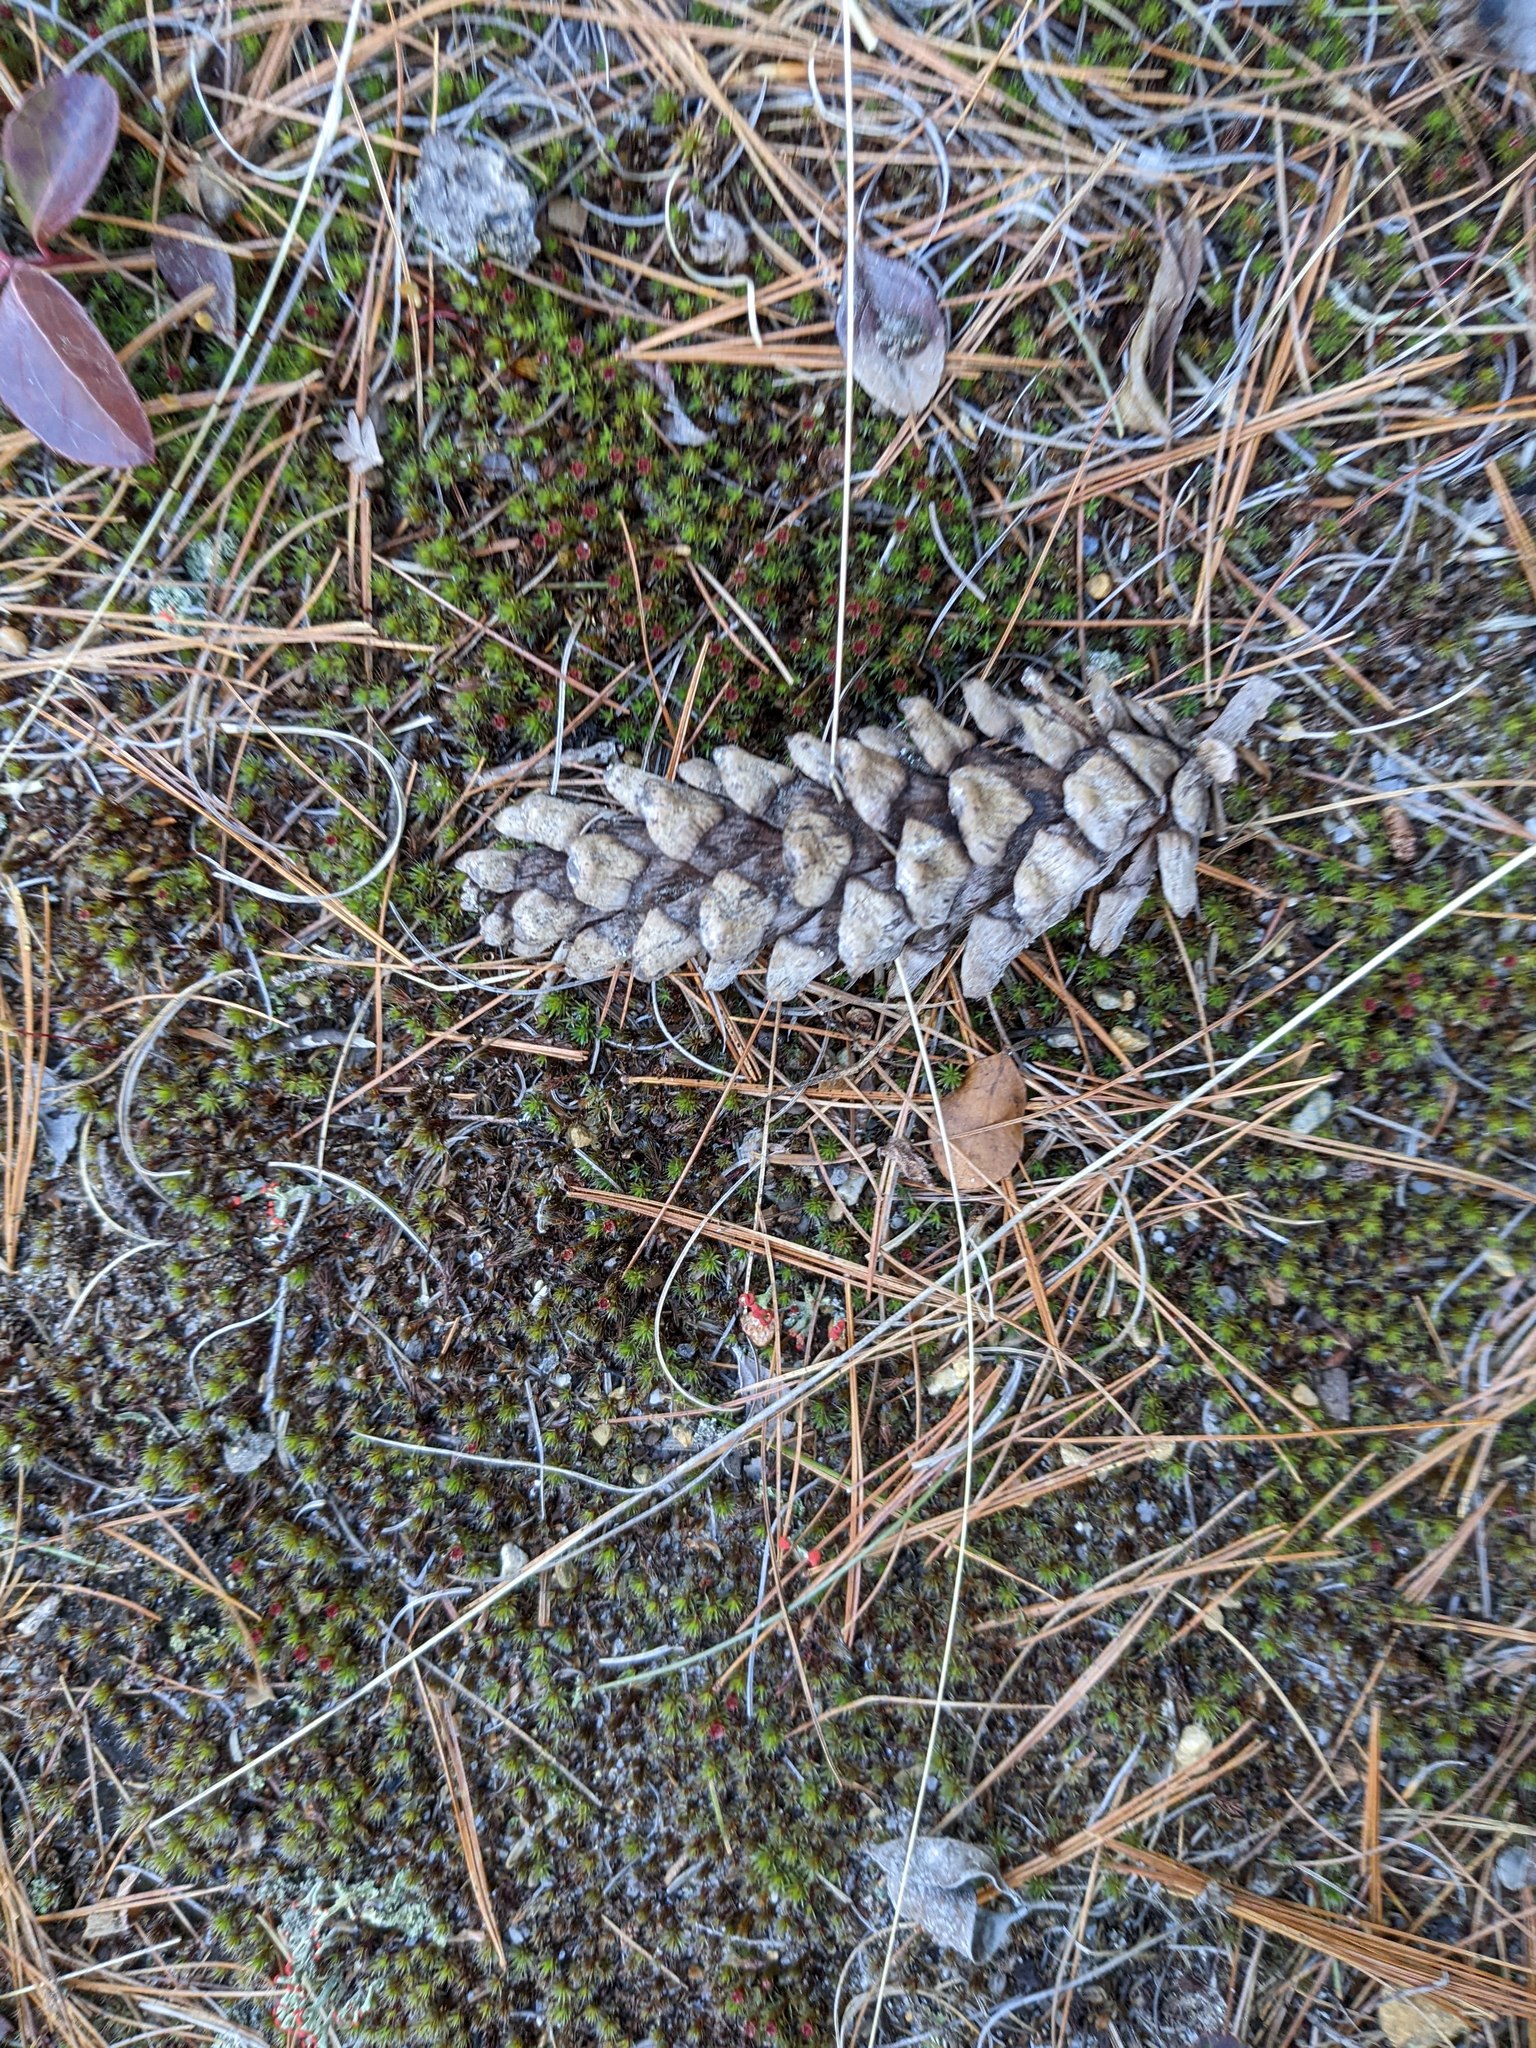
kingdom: Plantae
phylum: Tracheophyta
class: Pinopsida
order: Pinales
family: Pinaceae
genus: Pinus
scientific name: Pinus strobus
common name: Weymouth pine
